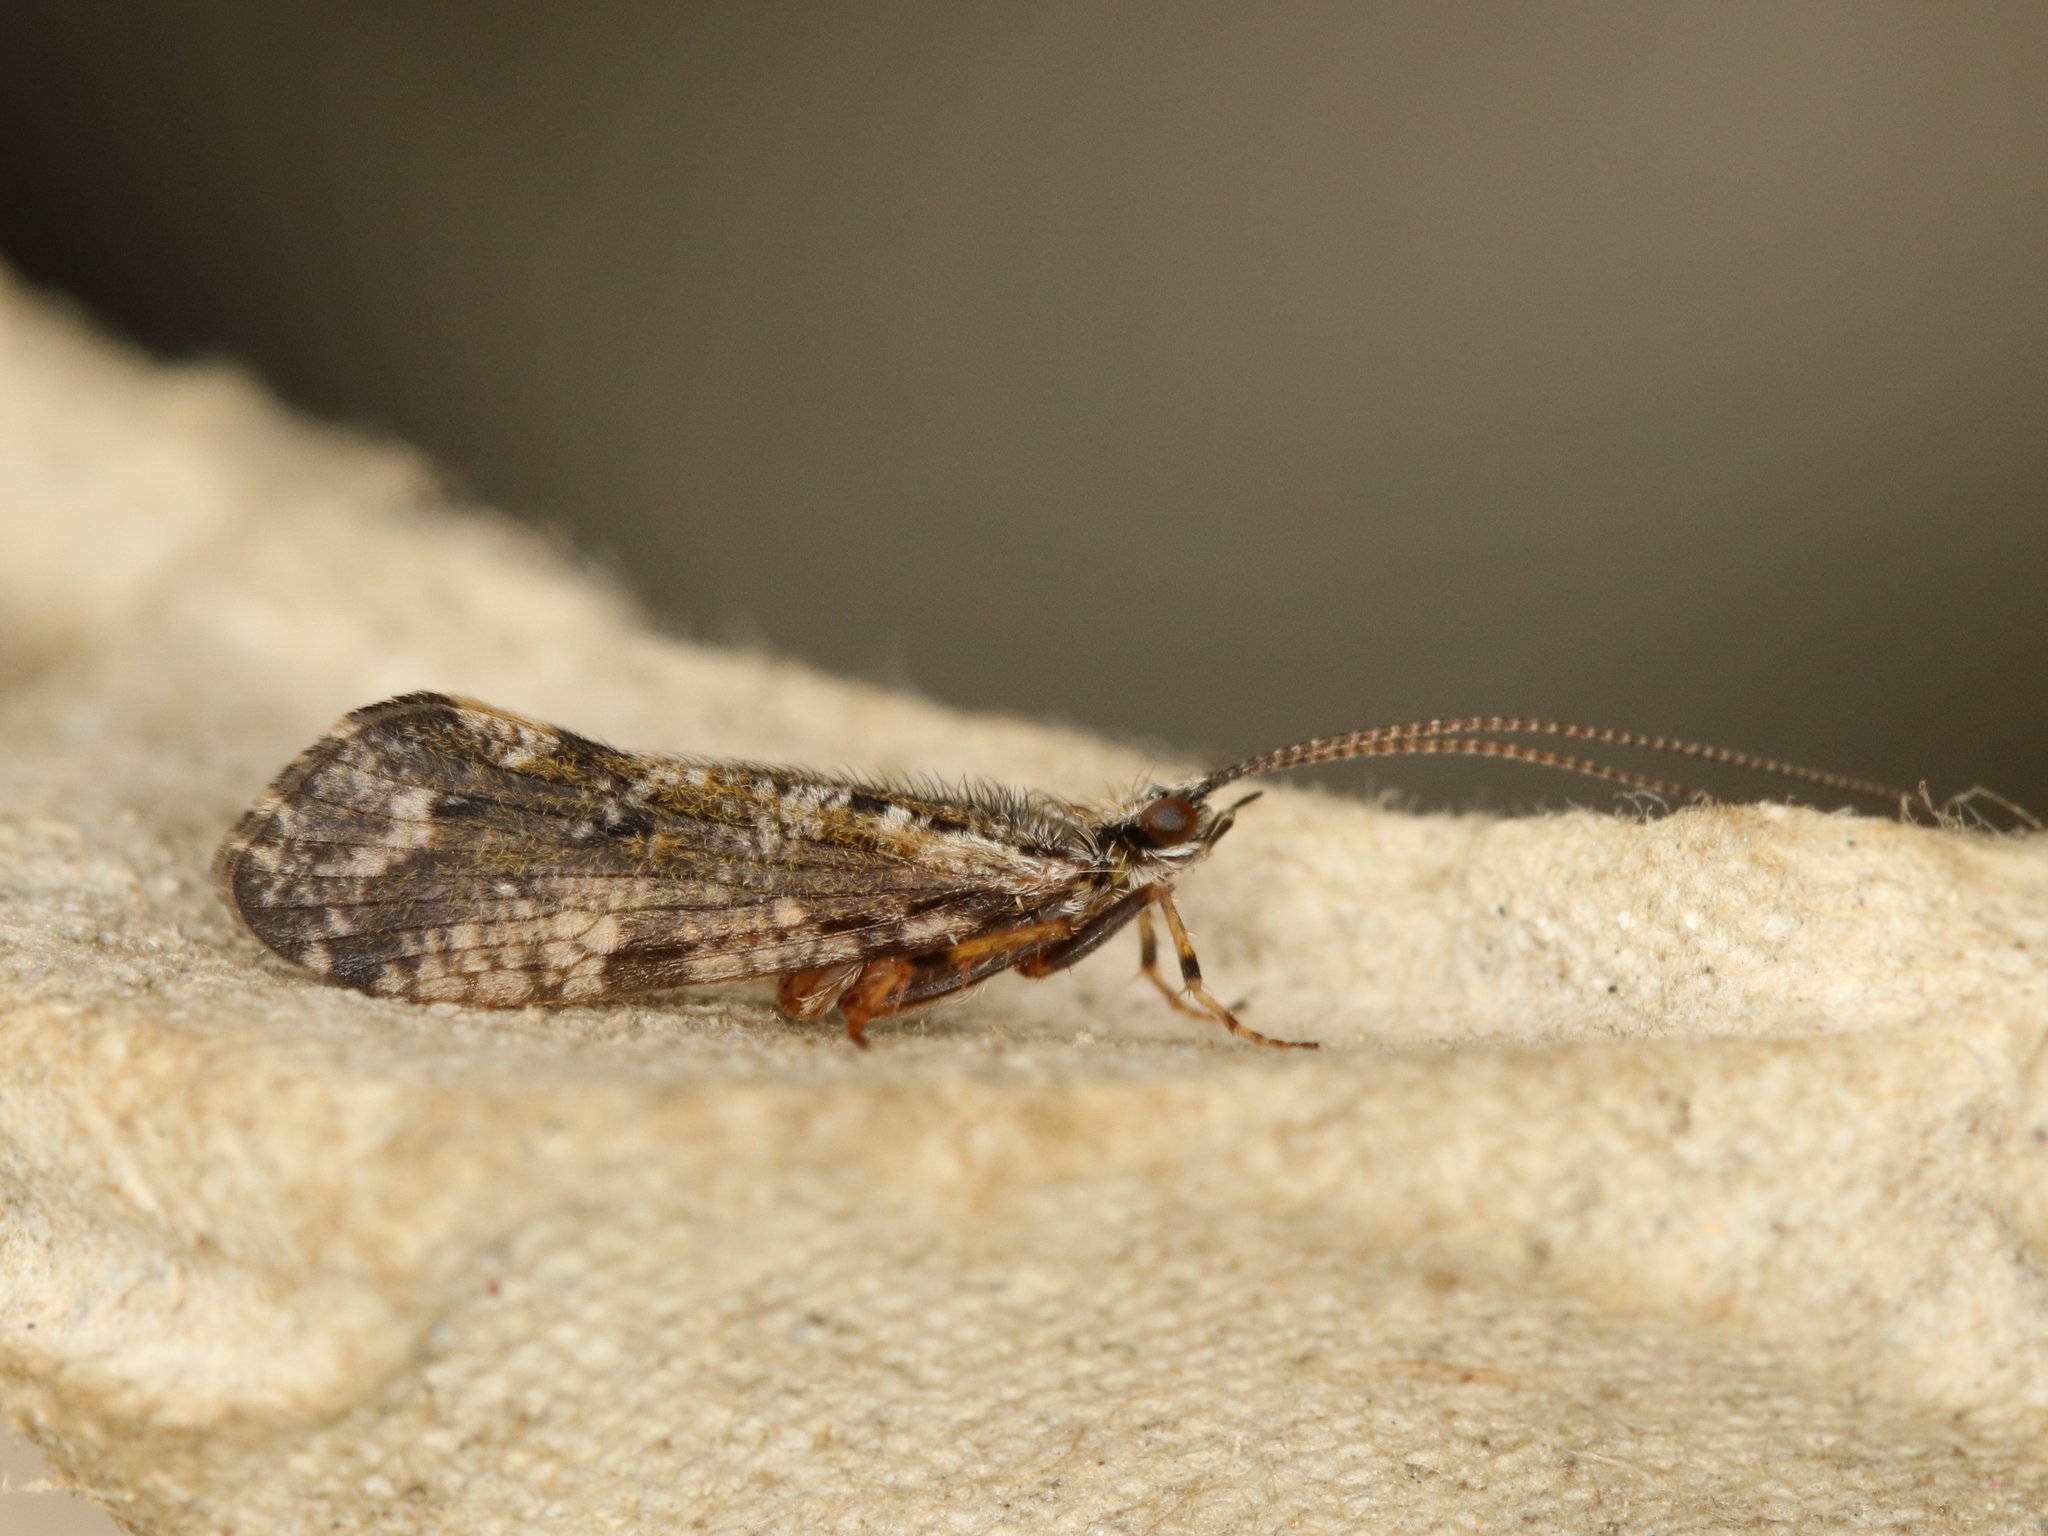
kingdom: Animalia
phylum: Arthropoda
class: Insecta
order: Trichoptera
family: Phryganeidae
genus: Trichostegia
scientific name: Trichostegia minor
